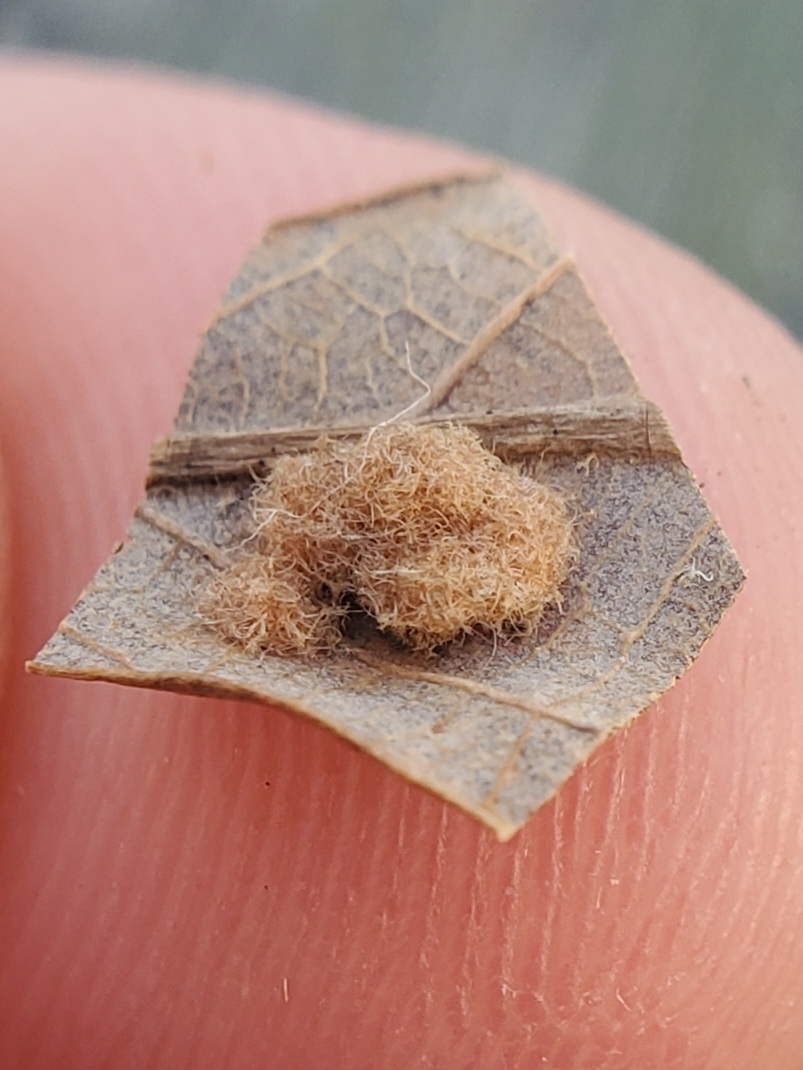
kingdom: Animalia
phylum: Arthropoda
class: Insecta
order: Hymenoptera
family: Cynipidae
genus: Philonix
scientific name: Philonix fulvicollis
